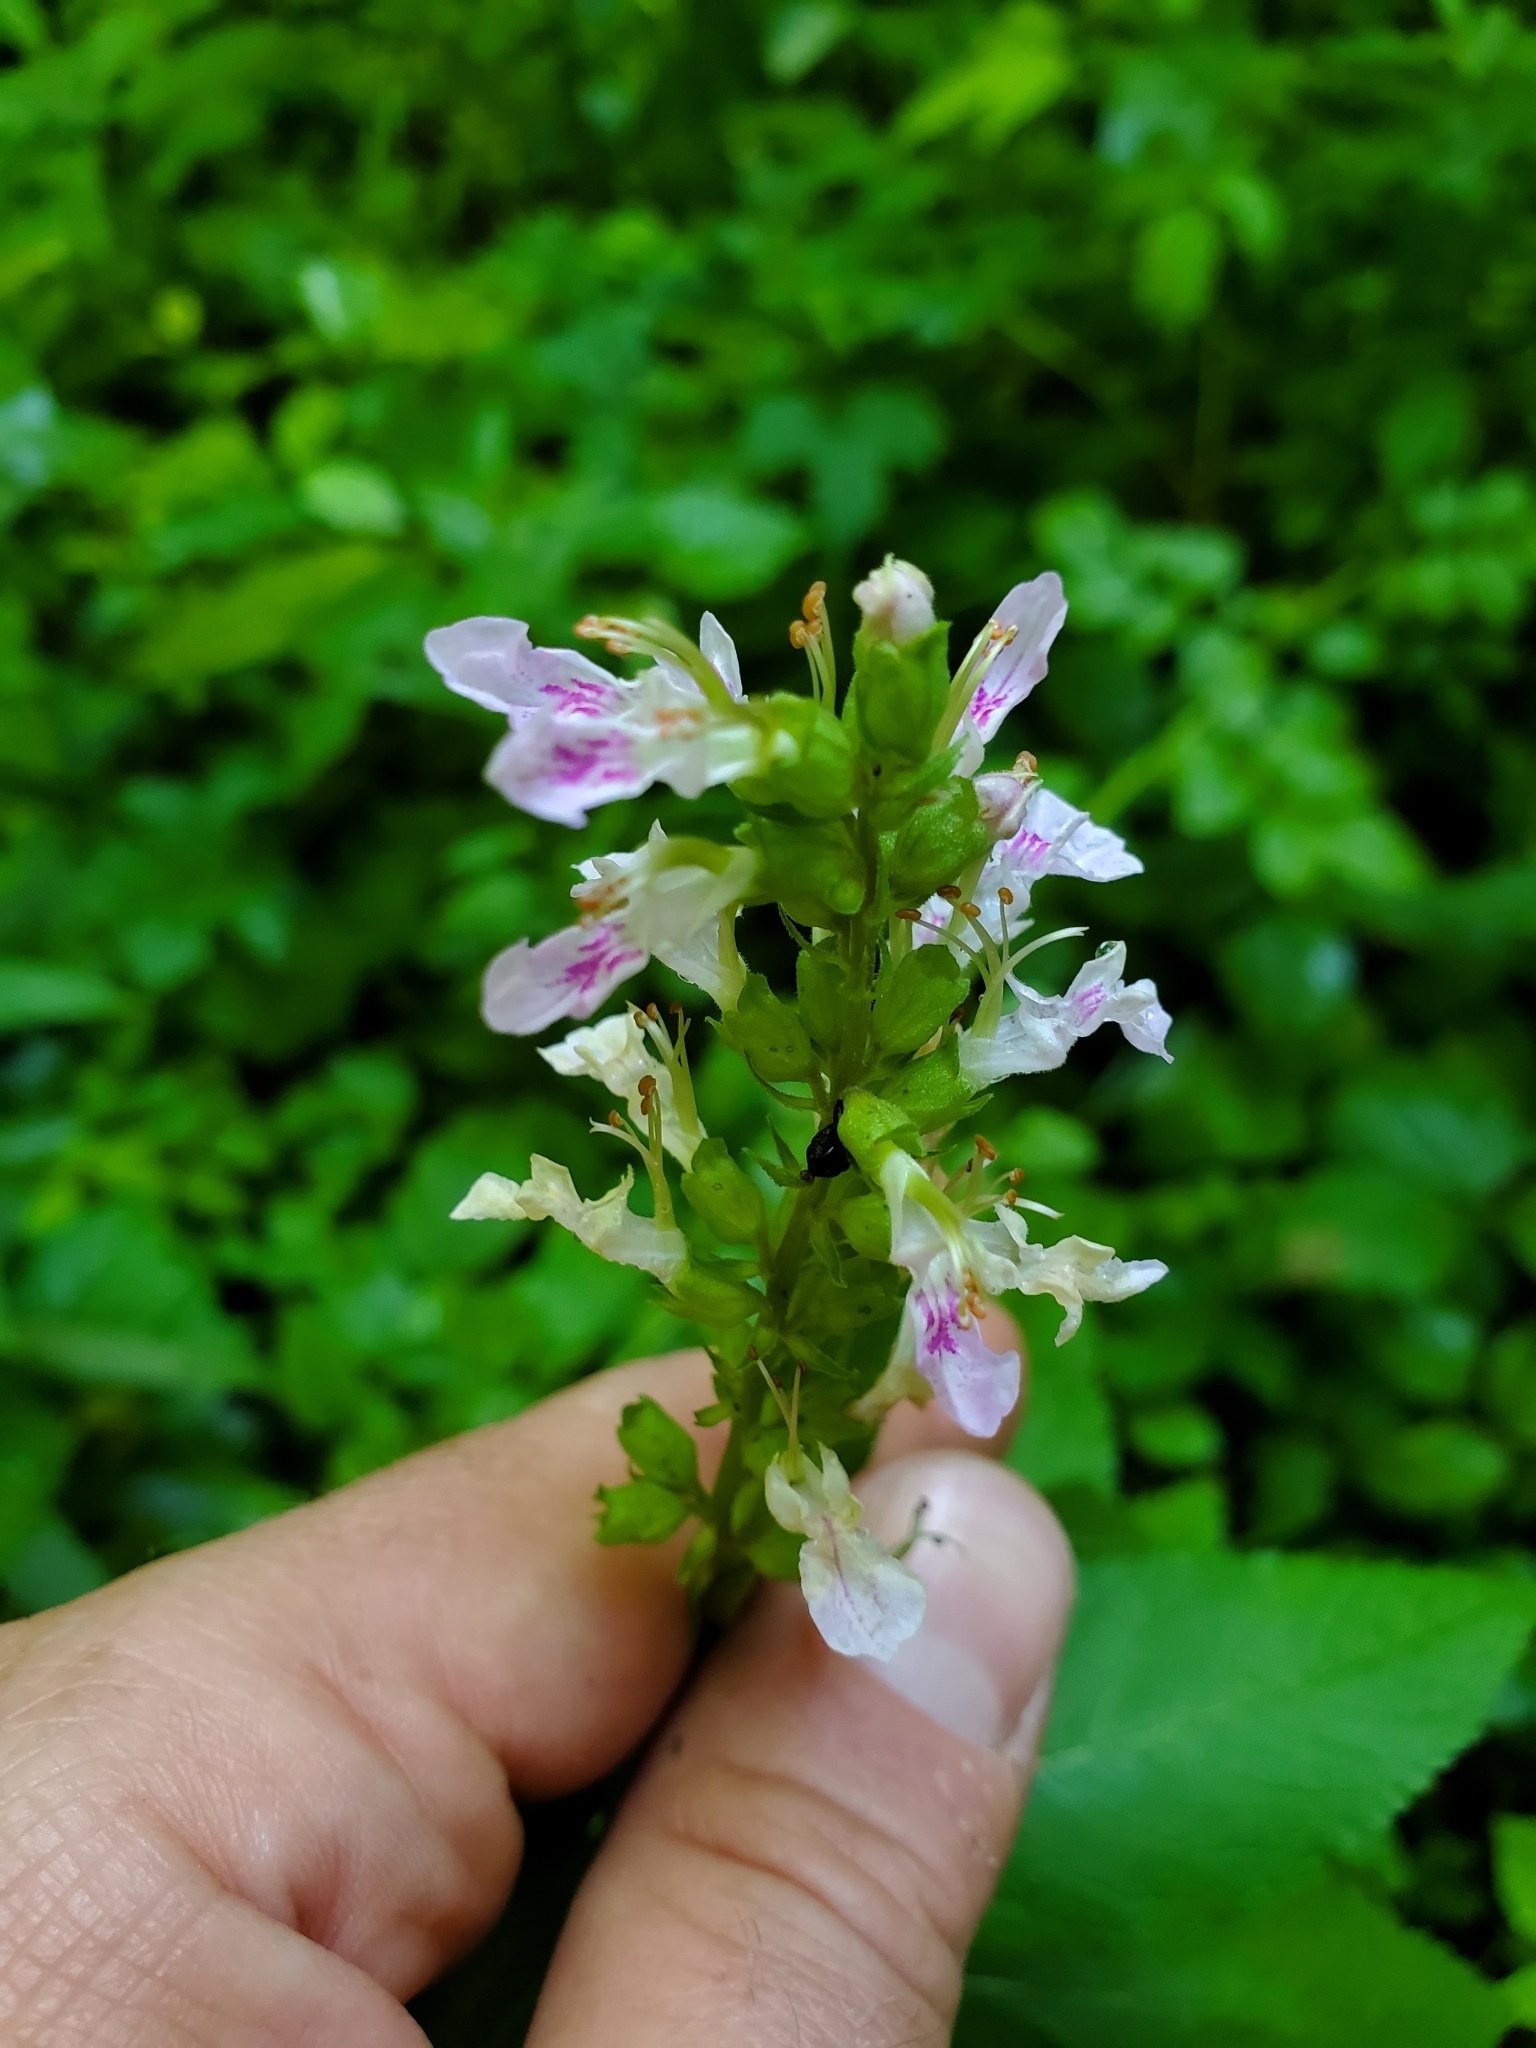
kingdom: Plantae
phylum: Tracheophyta
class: Magnoliopsida
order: Lamiales
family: Lamiaceae
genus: Teucrium
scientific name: Teucrium canadense
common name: American germander
